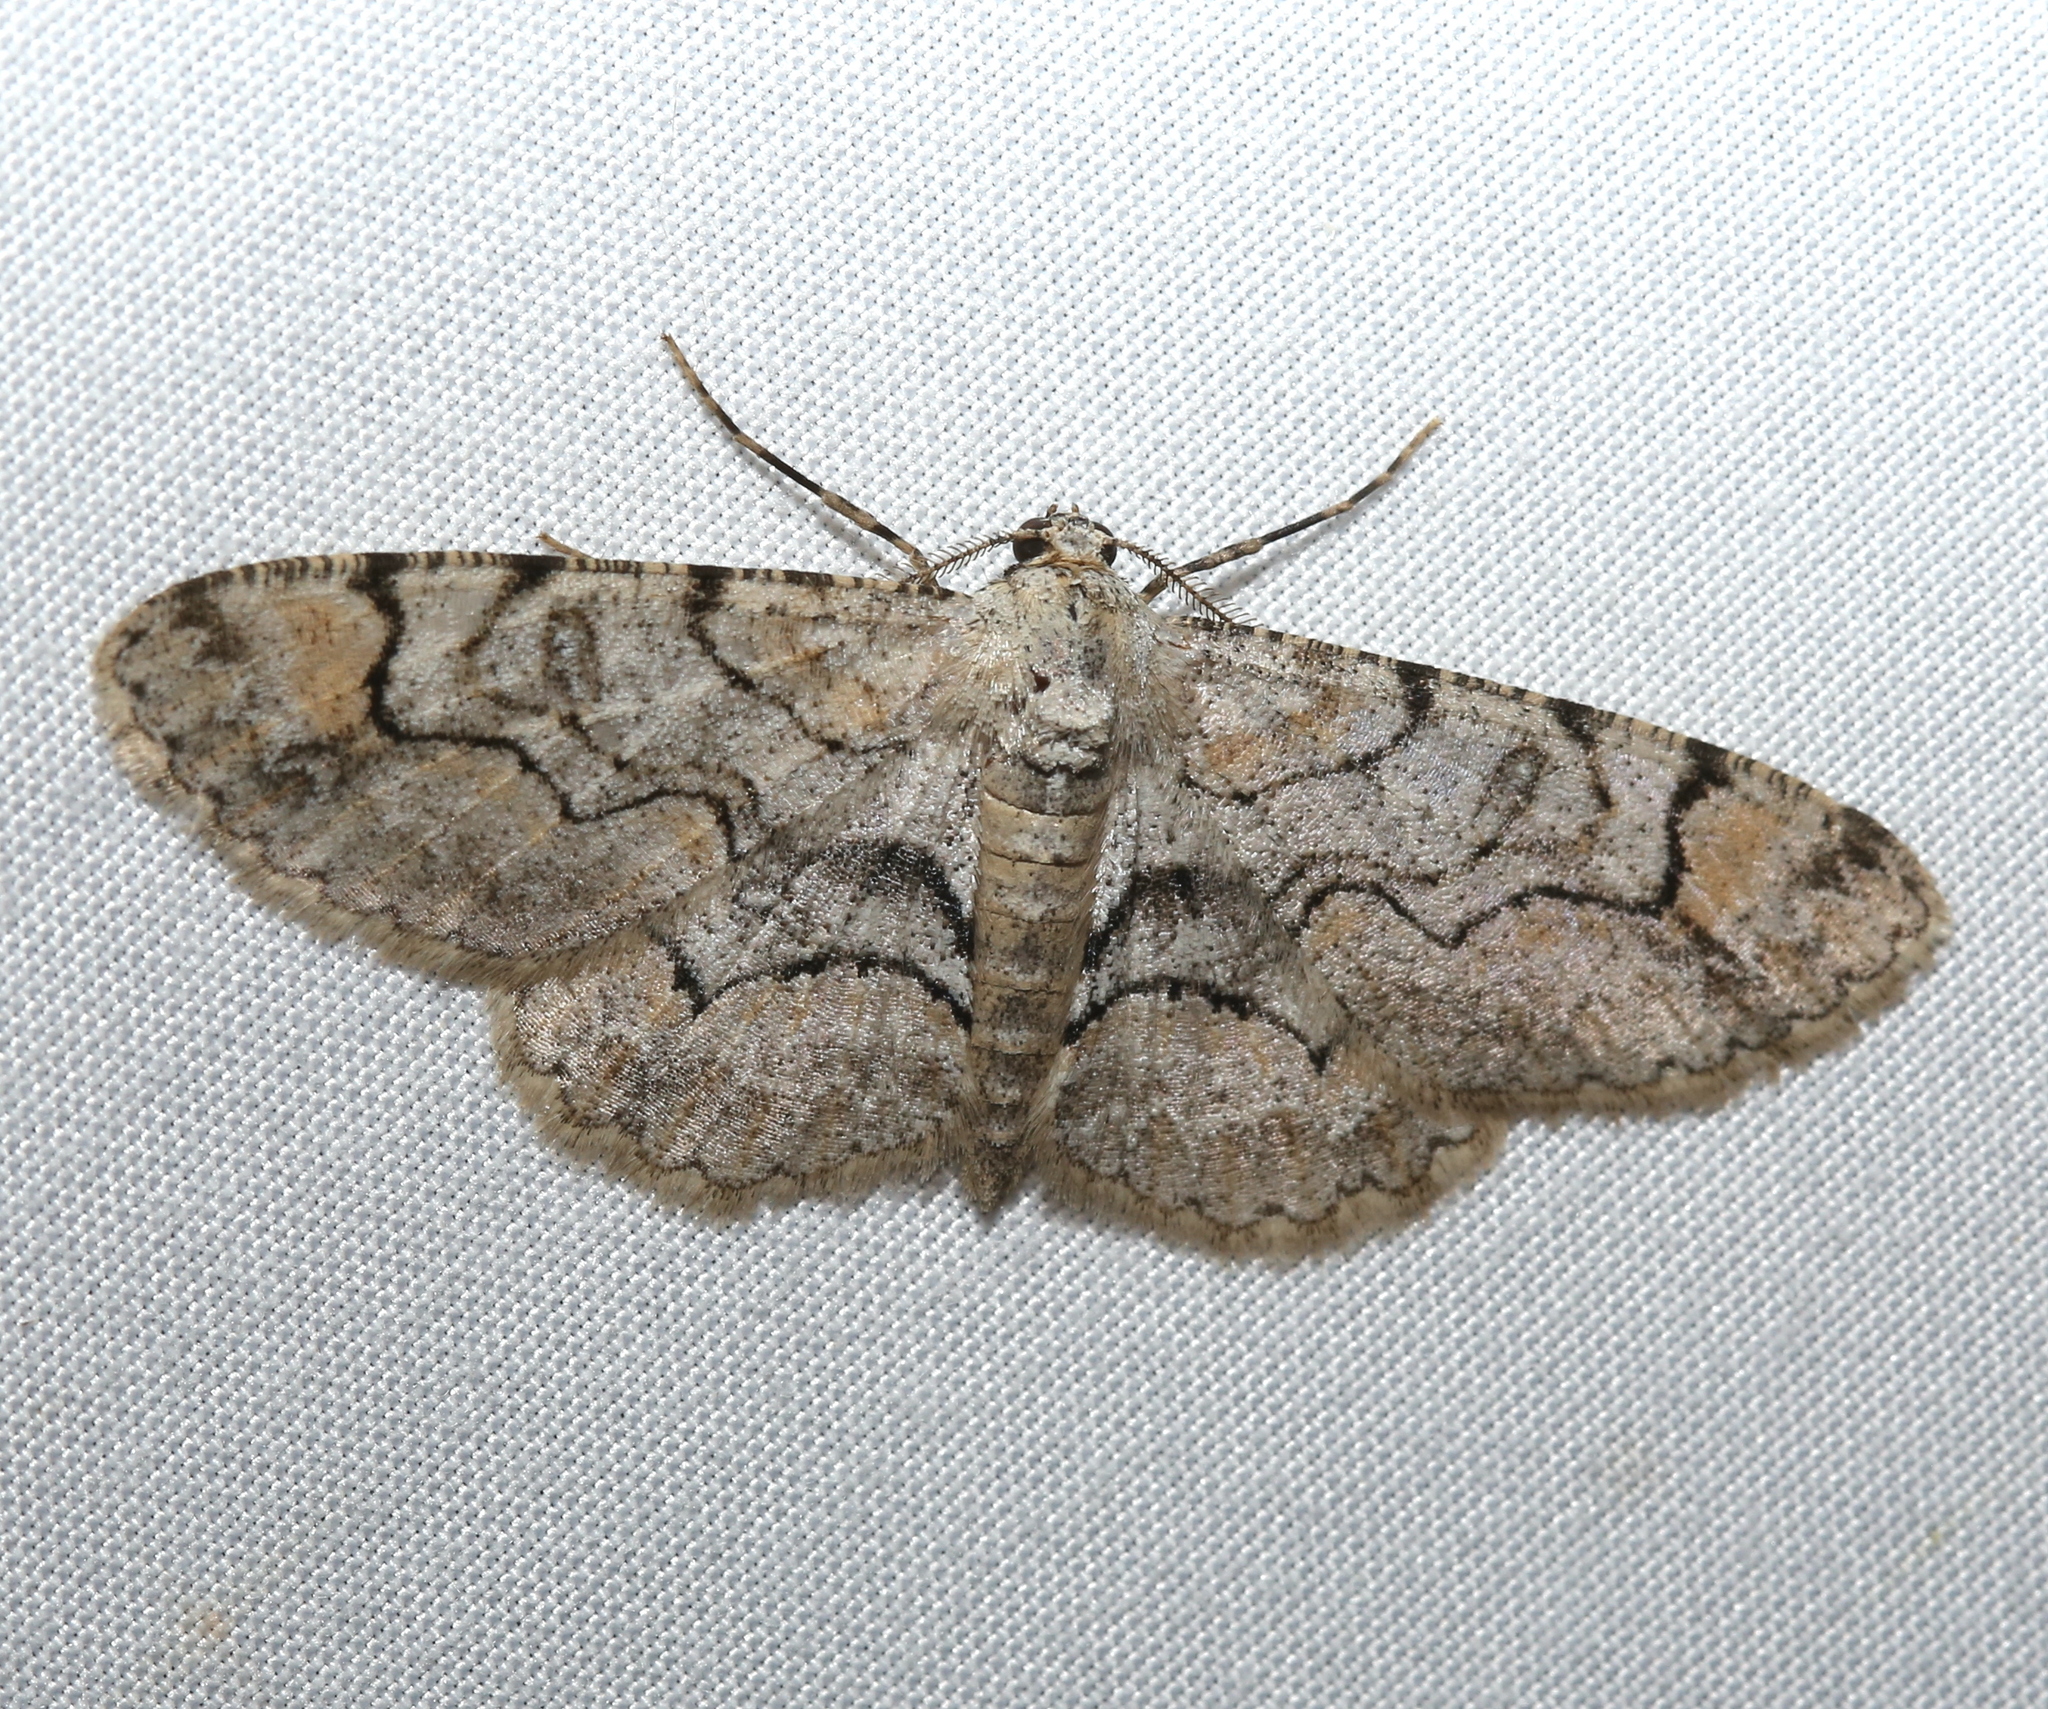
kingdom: Animalia
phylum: Arthropoda
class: Insecta
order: Lepidoptera
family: Geometridae
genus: Iridopsis
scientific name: Iridopsis larvaria
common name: Bent-line gray
